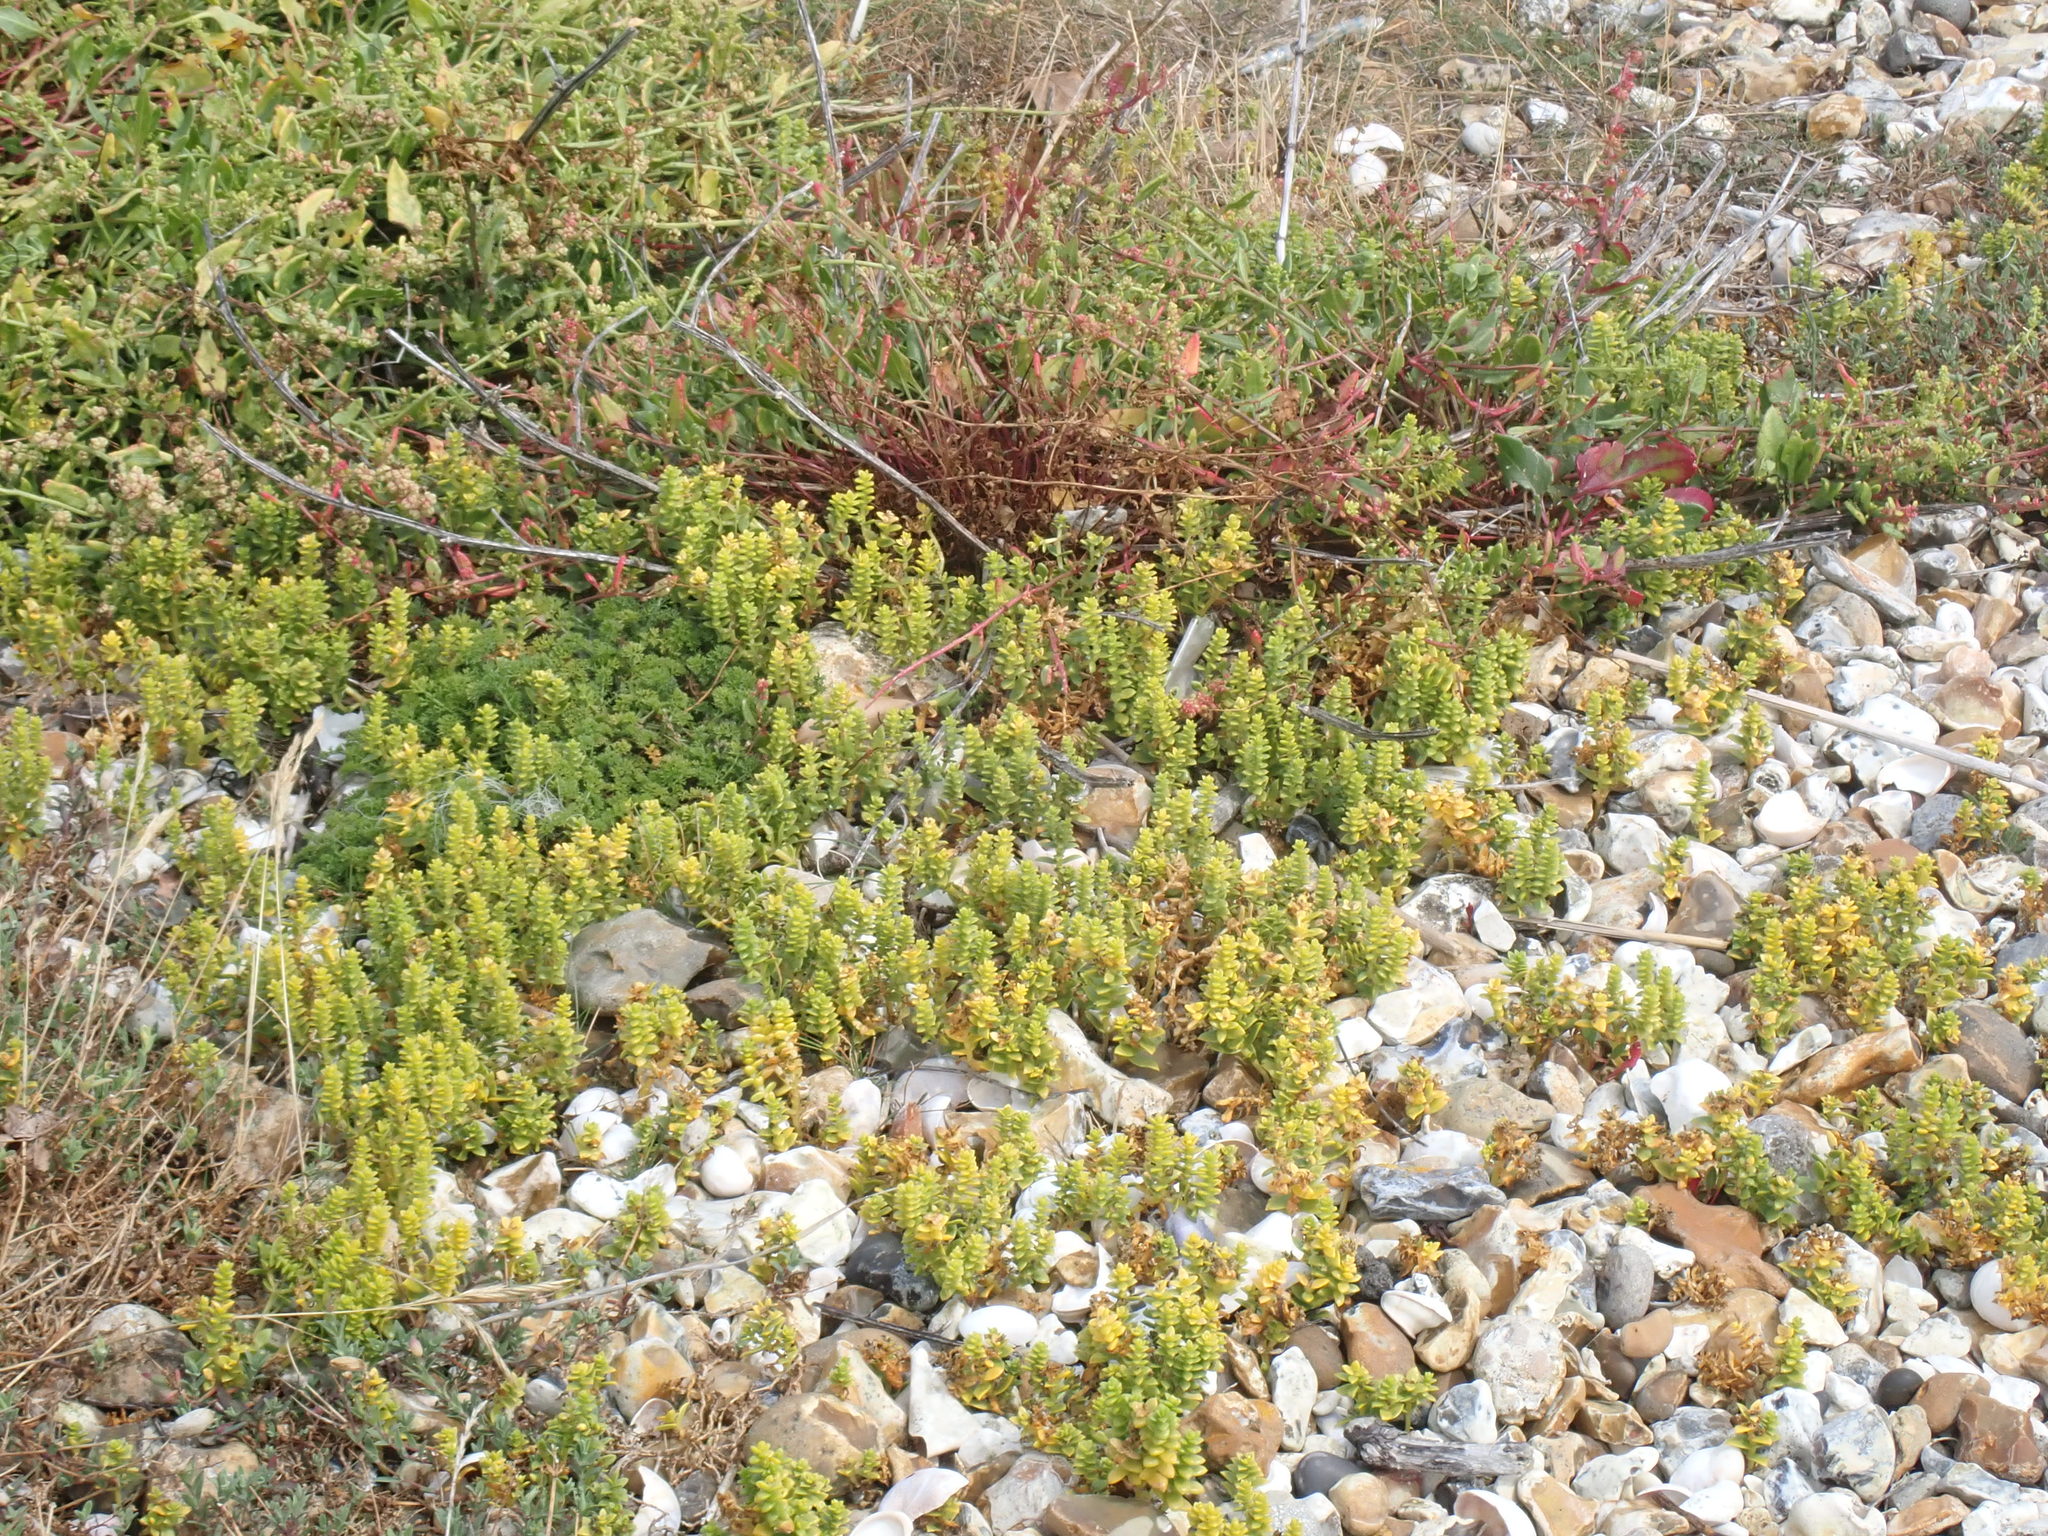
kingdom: Plantae
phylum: Tracheophyta
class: Magnoliopsida
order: Caryophyllales
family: Caryophyllaceae
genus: Honckenya
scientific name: Honckenya peploides
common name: Sea sandwort
